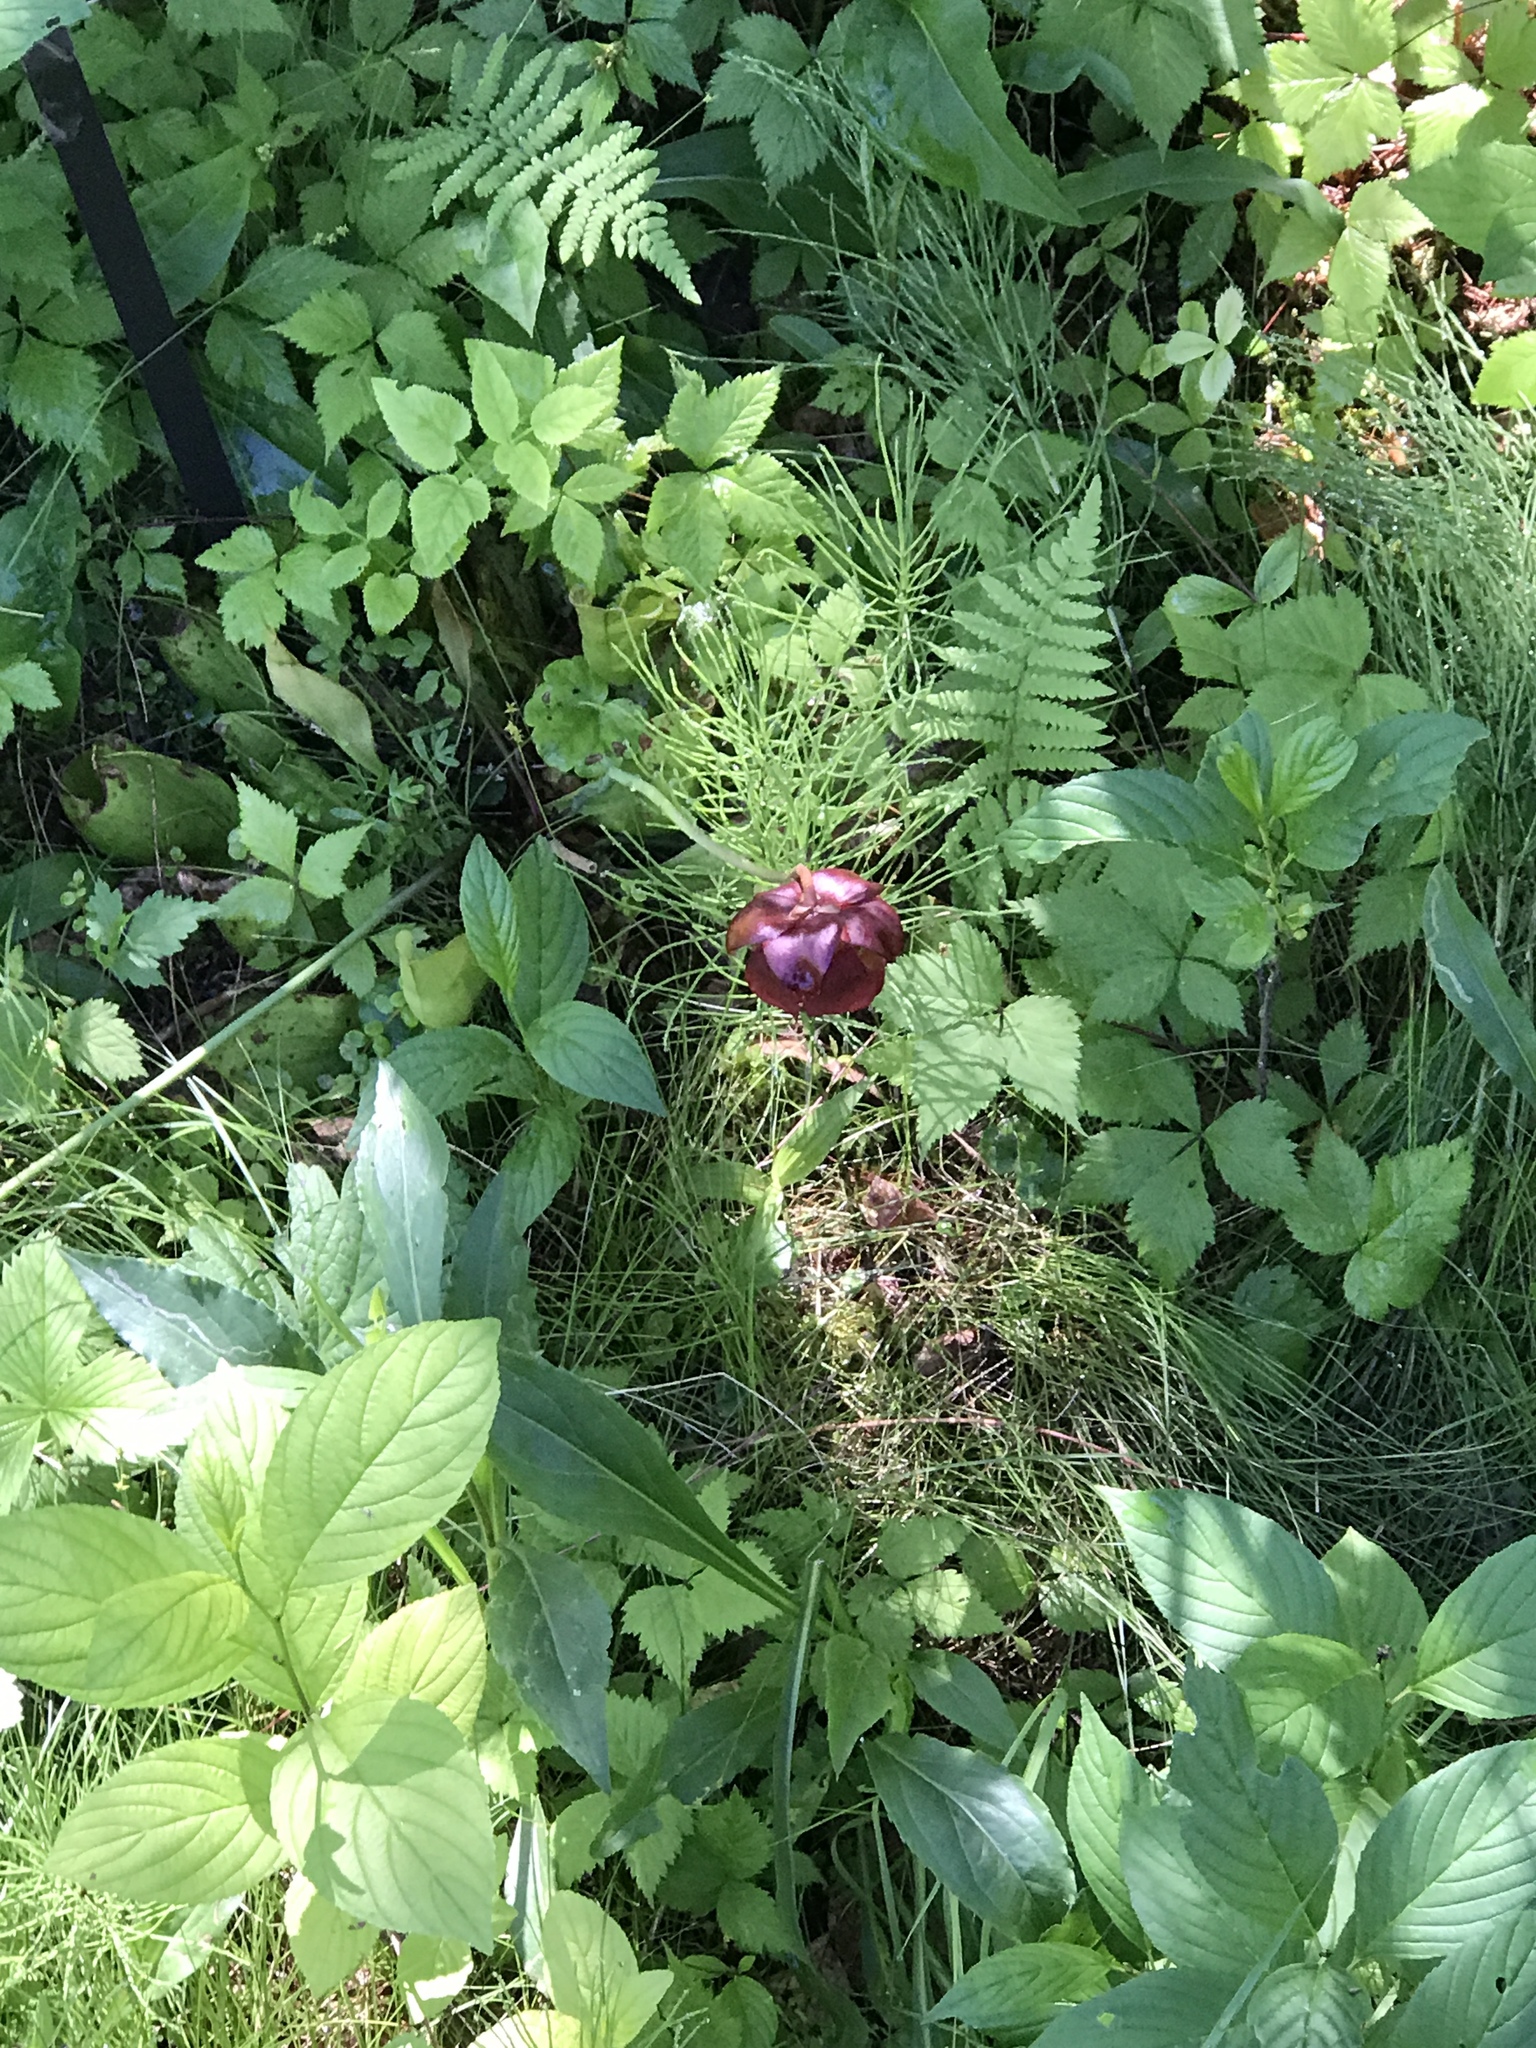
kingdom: Plantae
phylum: Tracheophyta
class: Magnoliopsida
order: Ericales
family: Sarraceniaceae
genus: Sarracenia
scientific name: Sarracenia purpurea
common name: Pitcherplant
